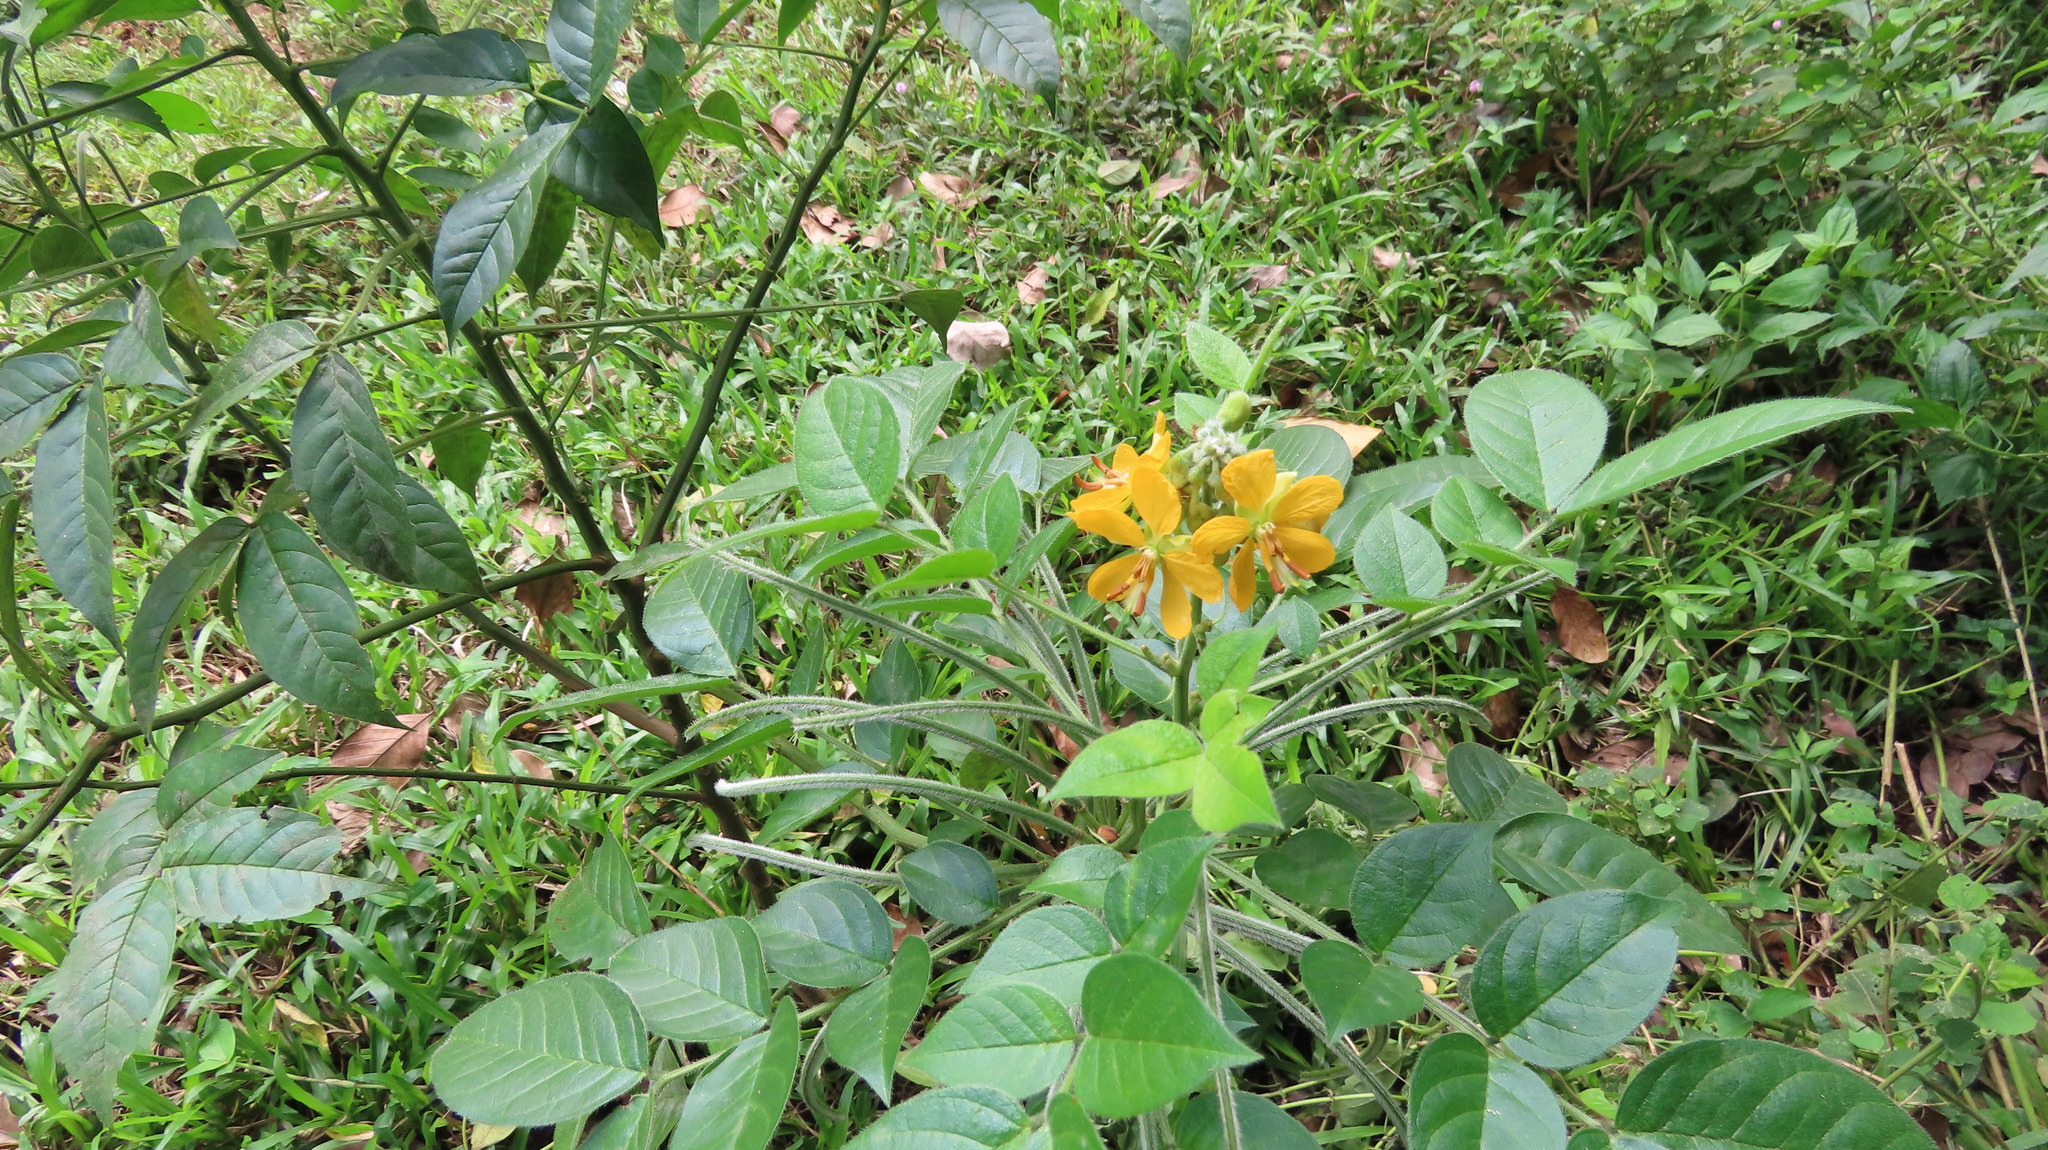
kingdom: Plantae
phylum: Tracheophyta
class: Magnoliopsida
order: Fabales
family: Fabaceae
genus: Senna
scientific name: Senna hirsuta
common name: Woolly senna
